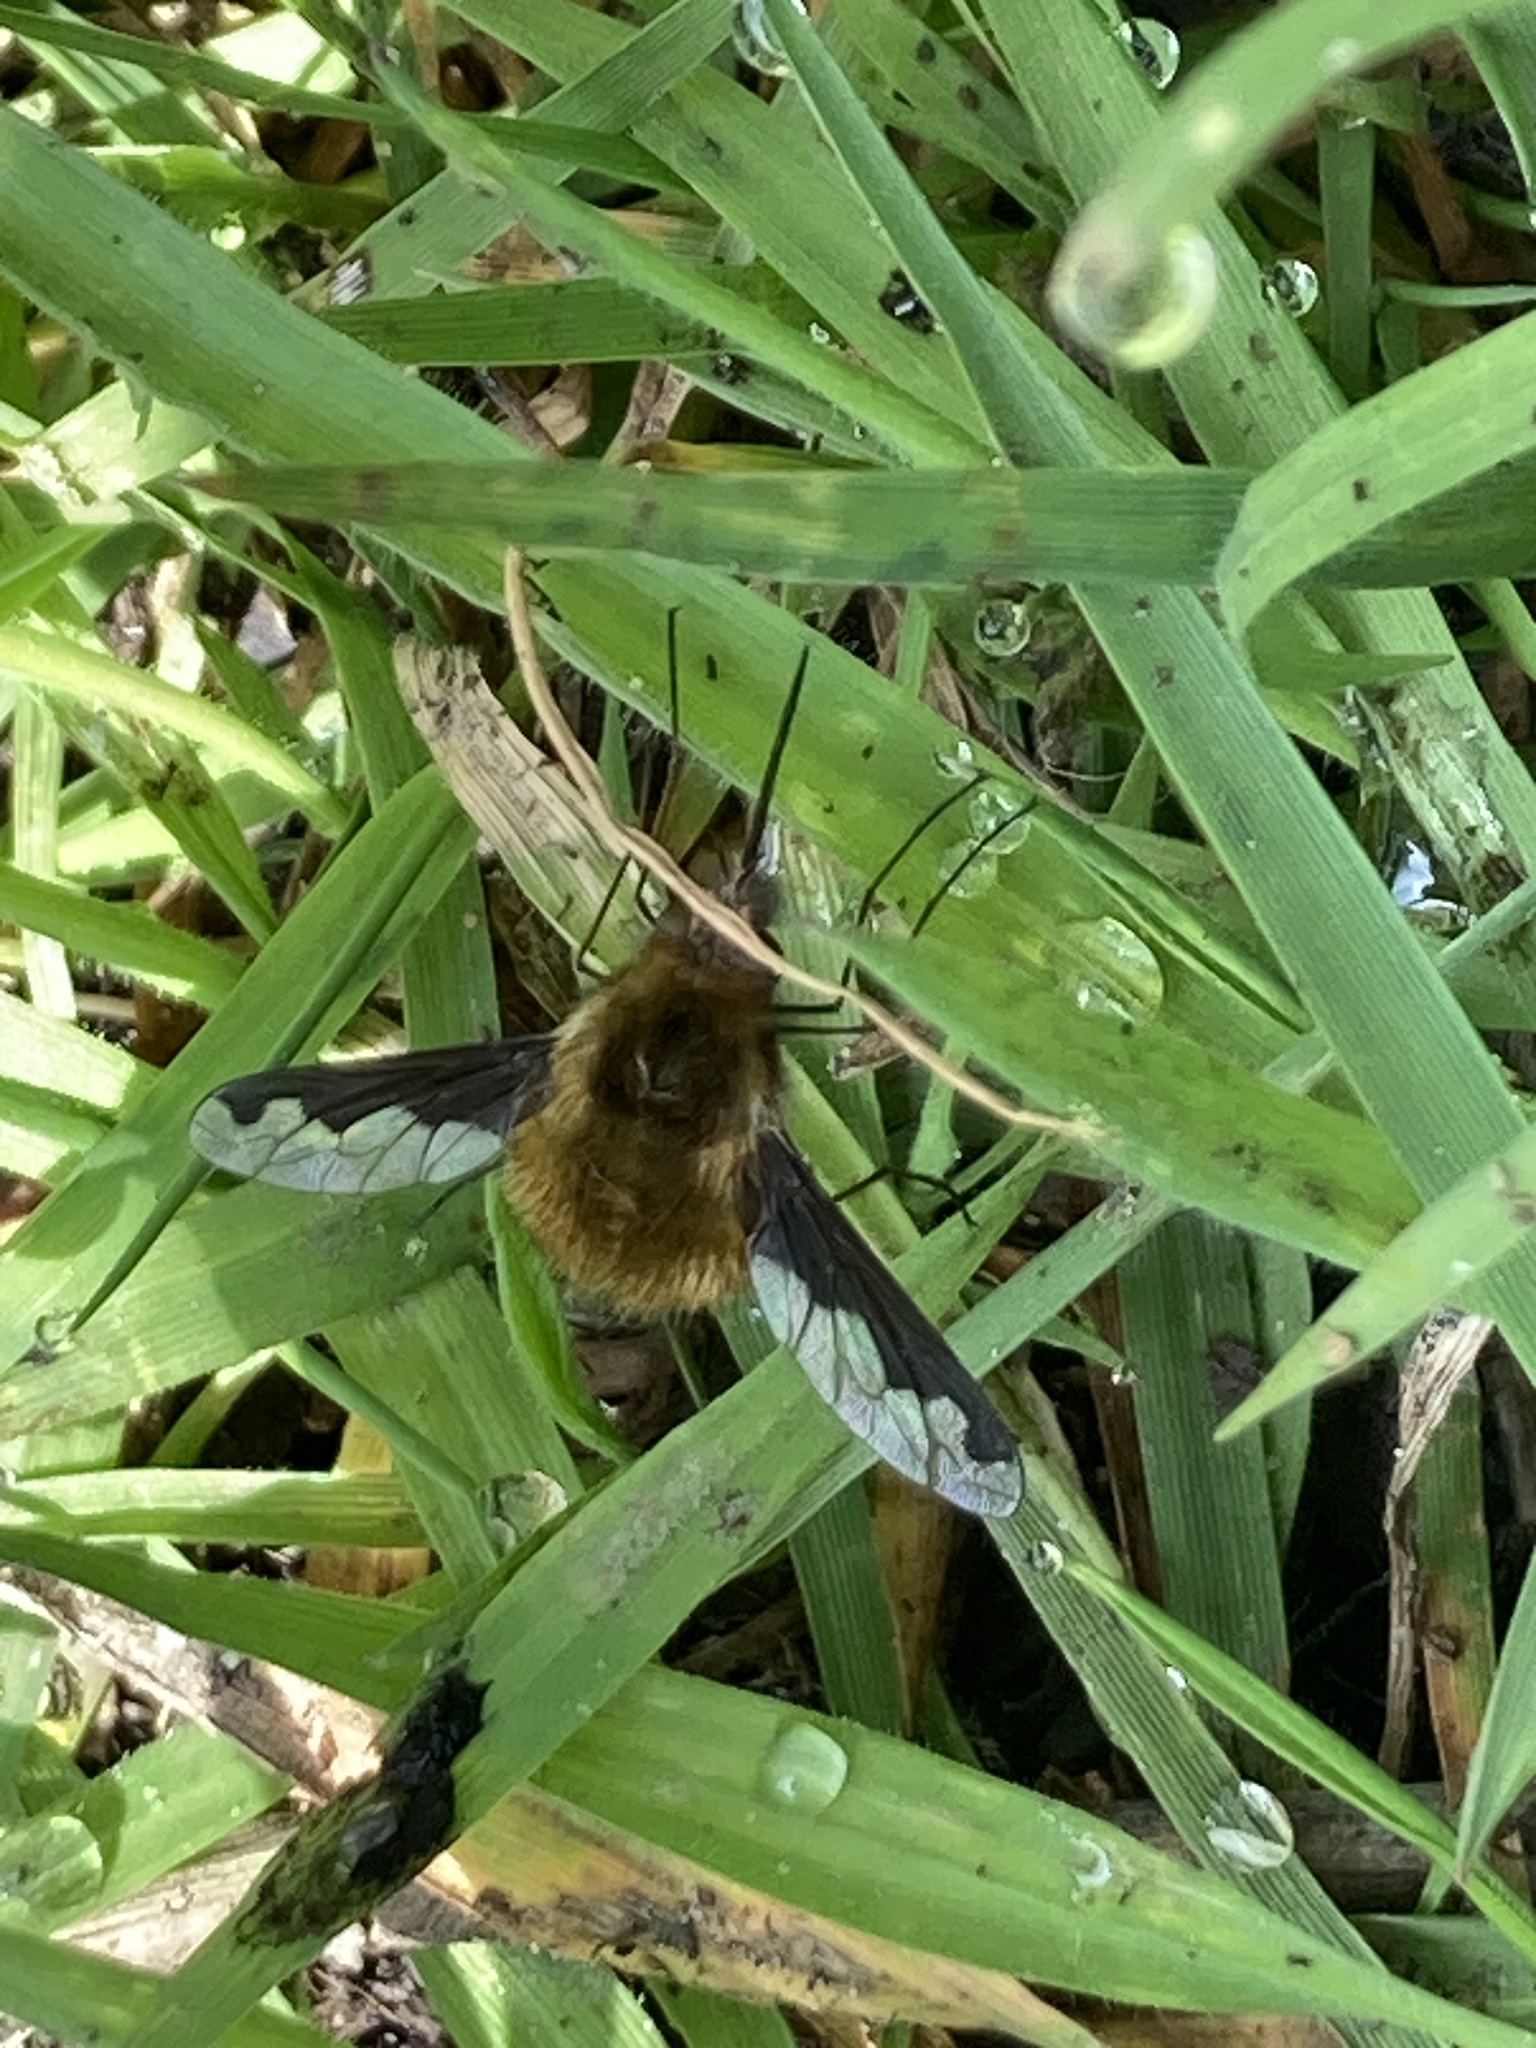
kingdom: Animalia
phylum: Arthropoda
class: Insecta
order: Diptera
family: Bombyliidae
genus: Bombylius
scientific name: Bombylius major
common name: Bee fly
